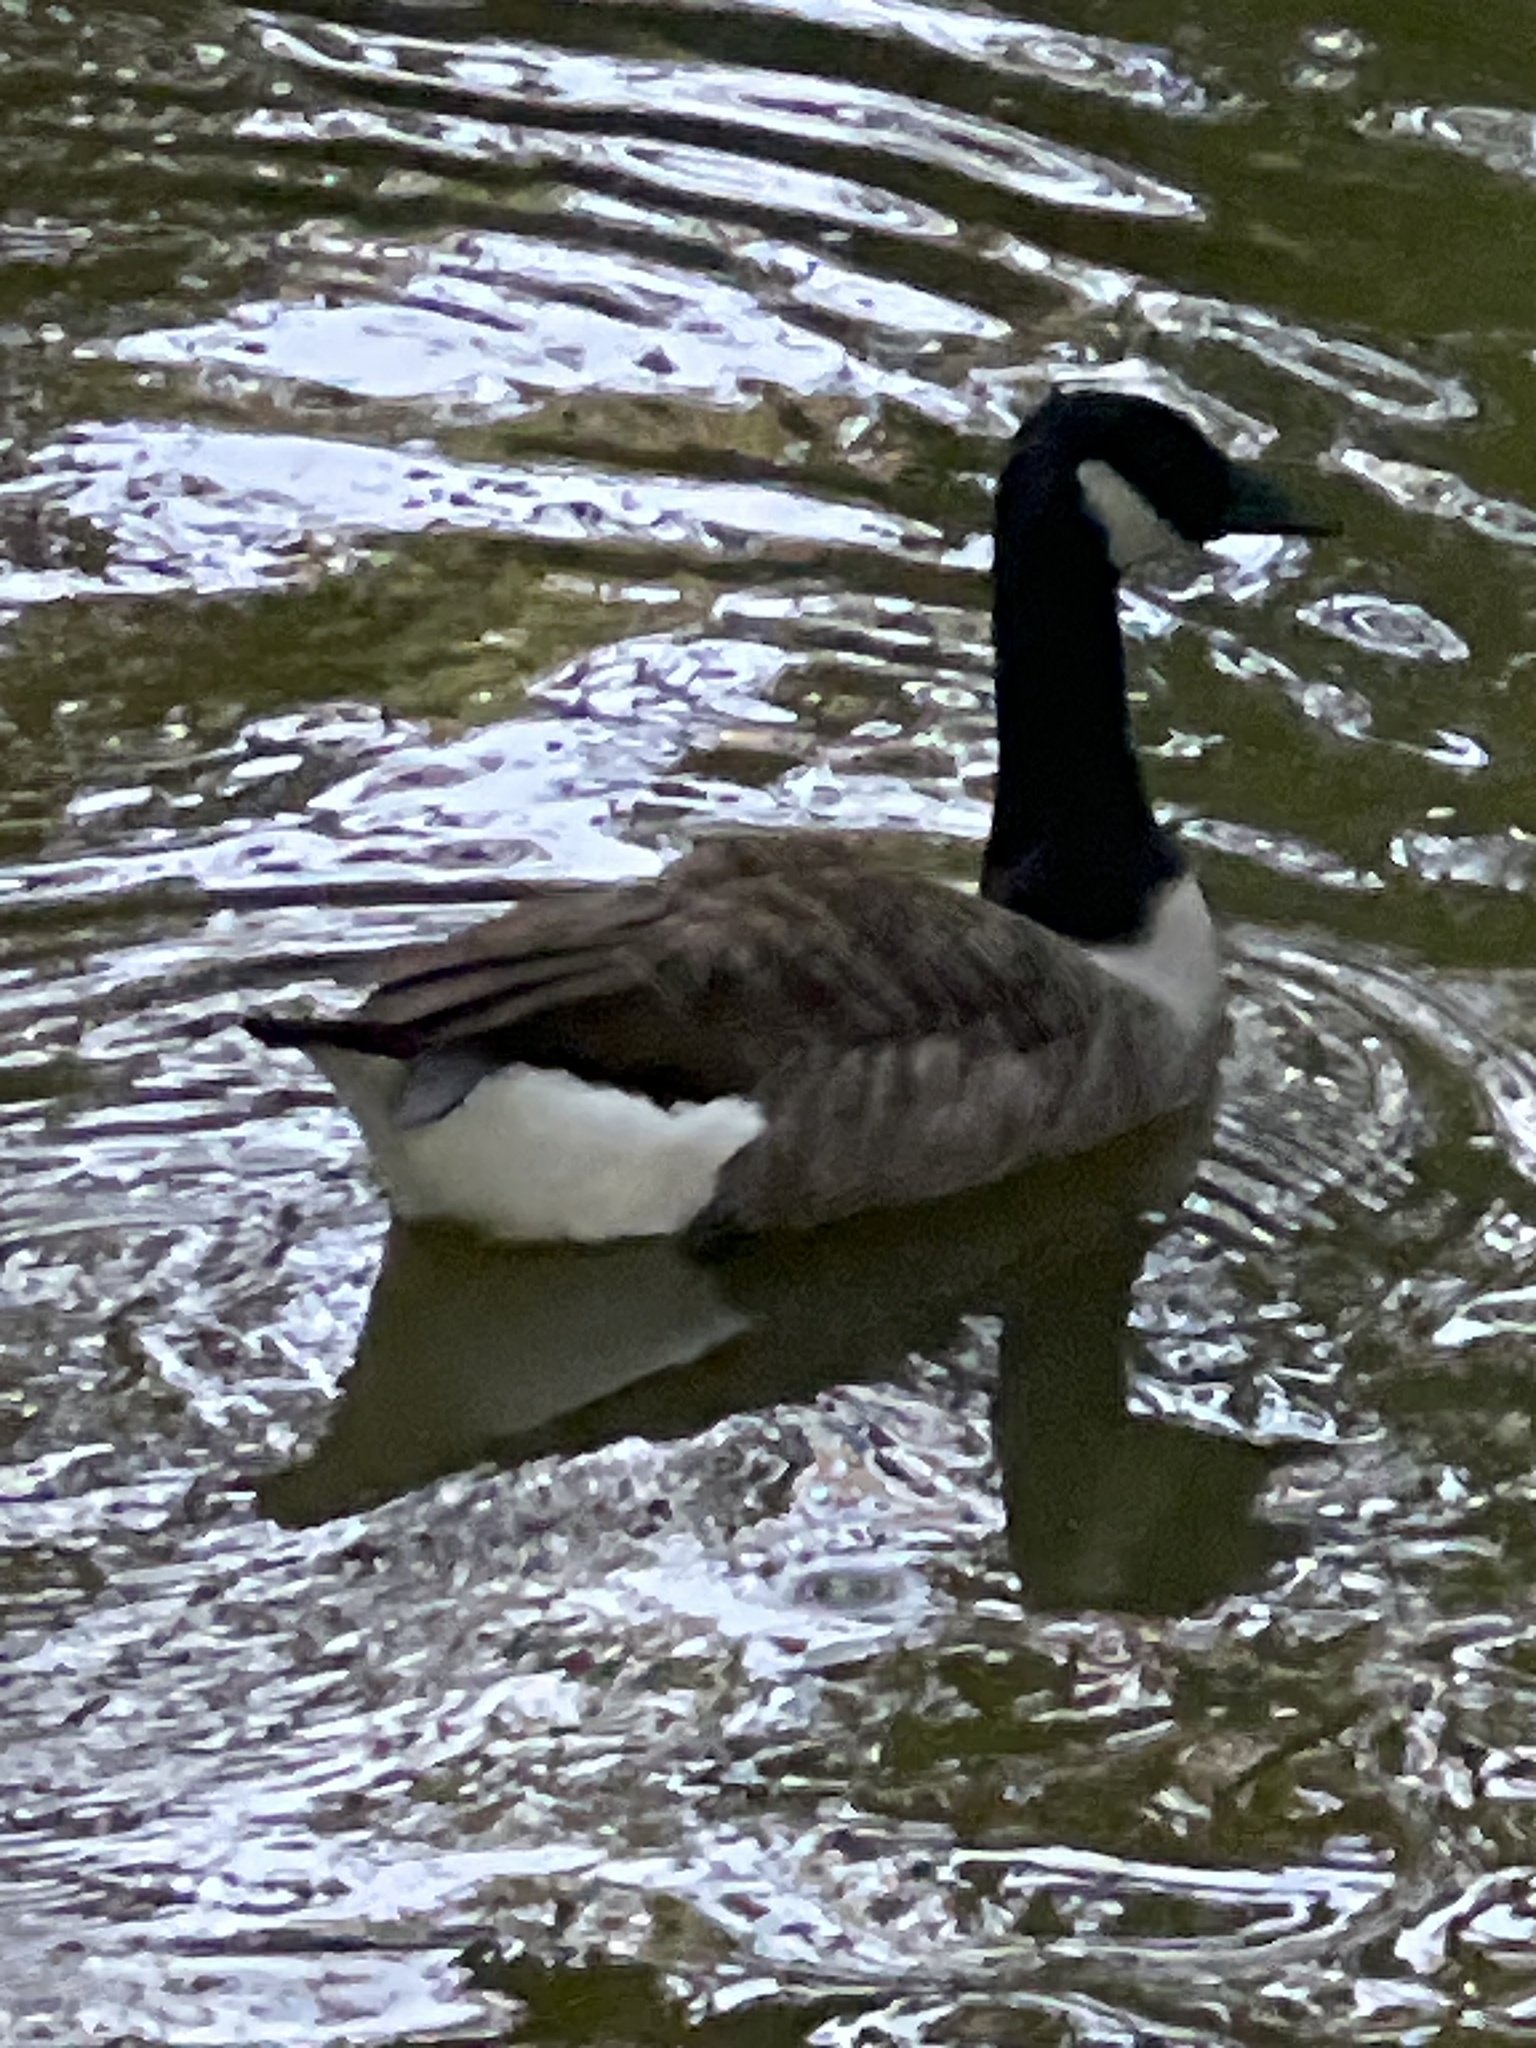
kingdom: Animalia
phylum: Chordata
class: Aves
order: Anseriformes
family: Anatidae
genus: Branta
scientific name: Branta canadensis
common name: Canada goose
